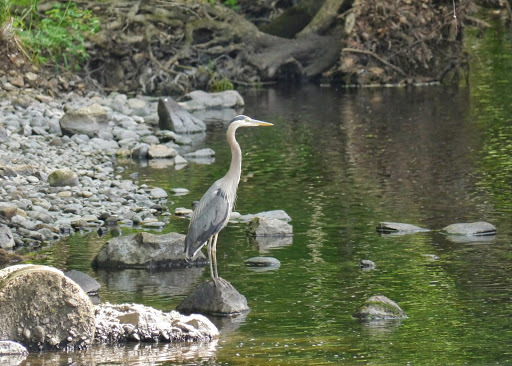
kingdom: Animalia
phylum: Chordata
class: Aves
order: Pelecaniformes
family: Ardeidae
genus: Ardea
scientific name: Ardea herodias
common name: Great blue heron
